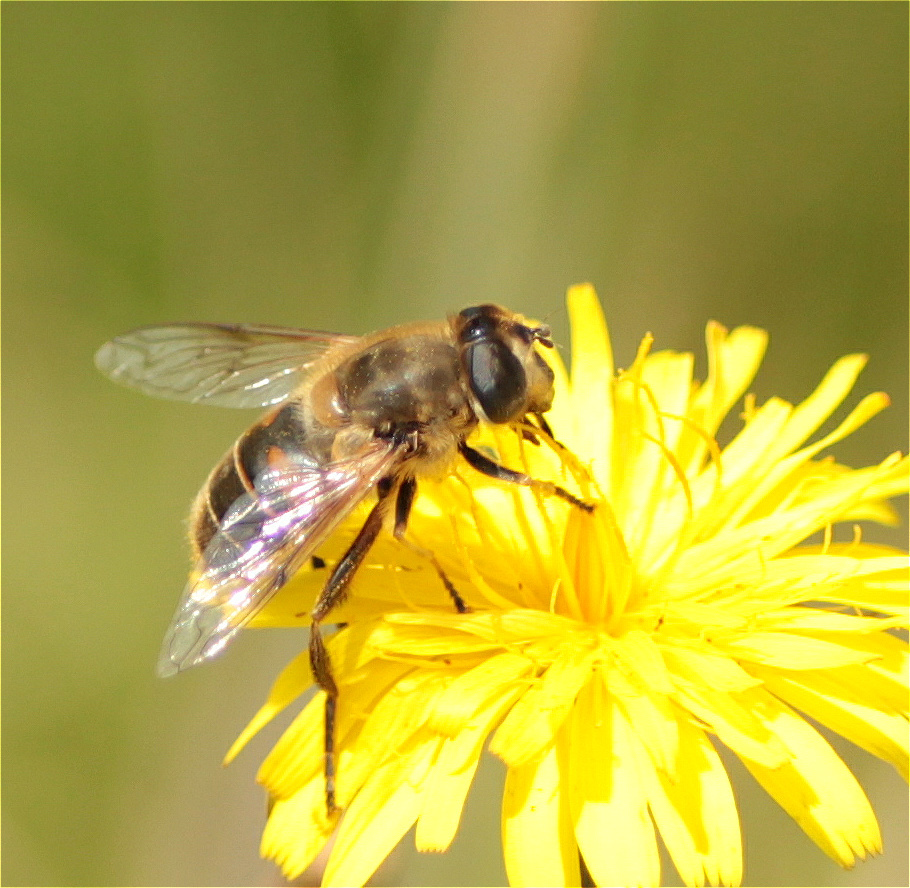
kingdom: Animalia
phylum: Arthropoda
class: Insecta
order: Diptera
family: Syrphidae
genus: Eristalis
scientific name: Eristalis tenax
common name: Drone fly
